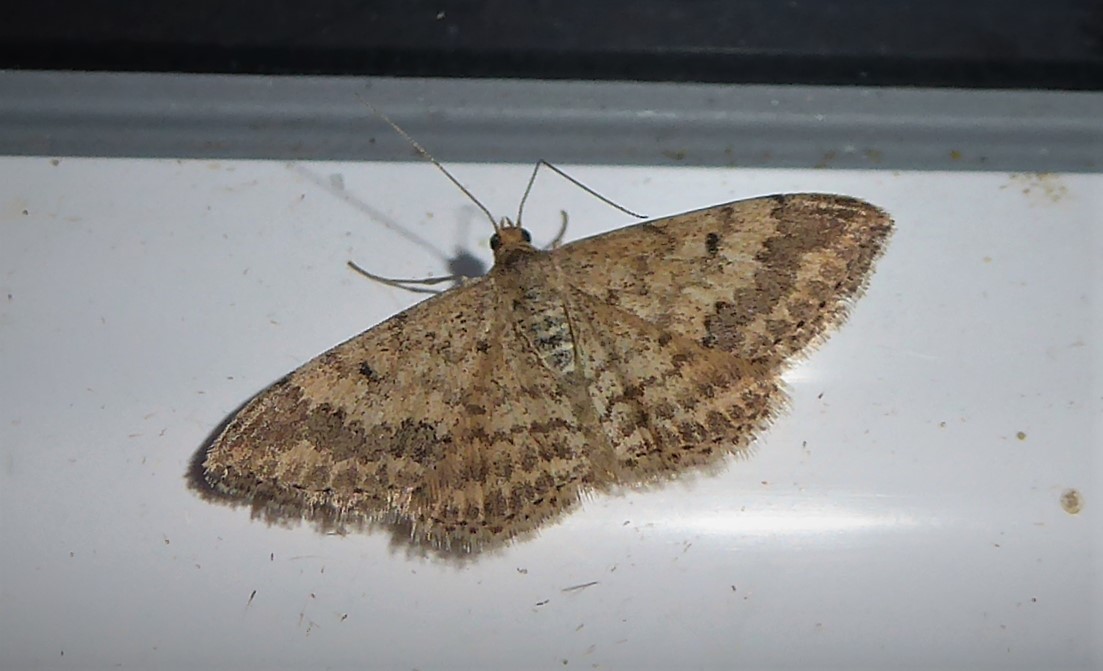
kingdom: Animalia
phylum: Arthropoda
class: Insecta
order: Lepidoptera
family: Geometridae
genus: Scopula
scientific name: Scopula rubraria
